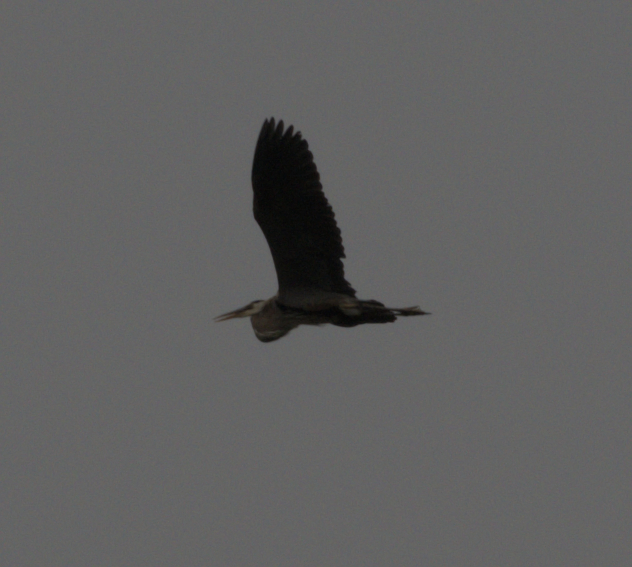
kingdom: Animalia
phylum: Chordata
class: Aves
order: Pelecaniformes
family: Ardeidae
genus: Ardea
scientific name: Ardea herodias
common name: Great blue heron
